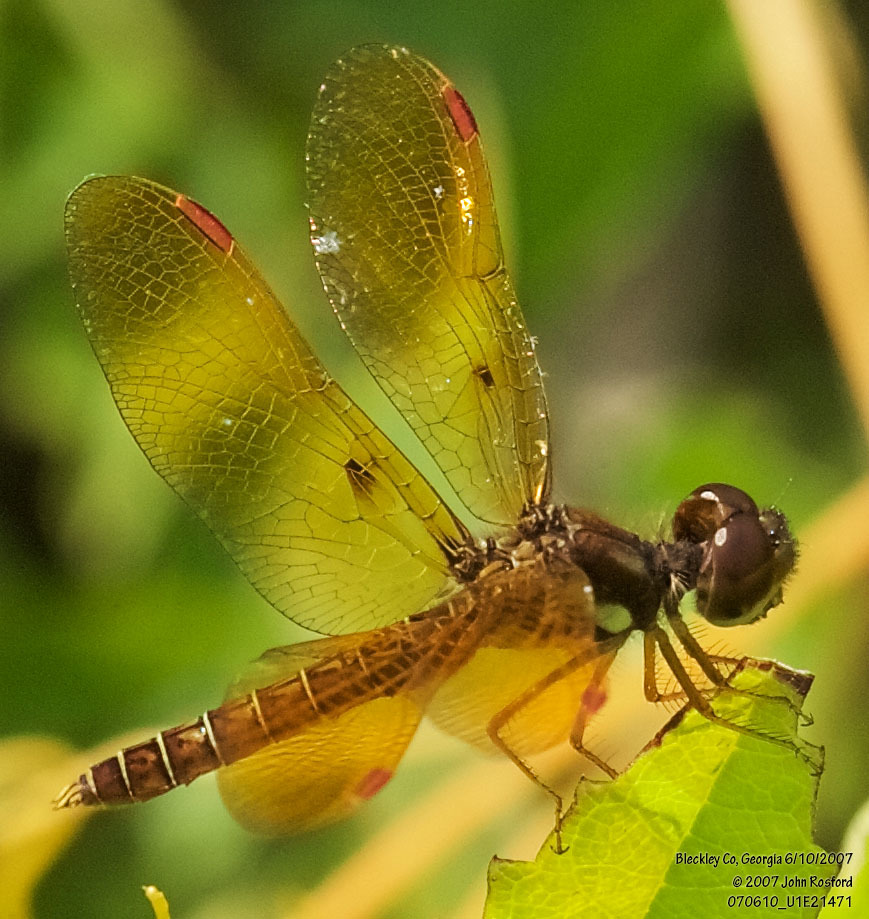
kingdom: Animalia
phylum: Arthropoda
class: Insecta
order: Odonata
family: Libellulidae
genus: Perithemis
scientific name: Perithemis tenera
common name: Eastern amberwing
